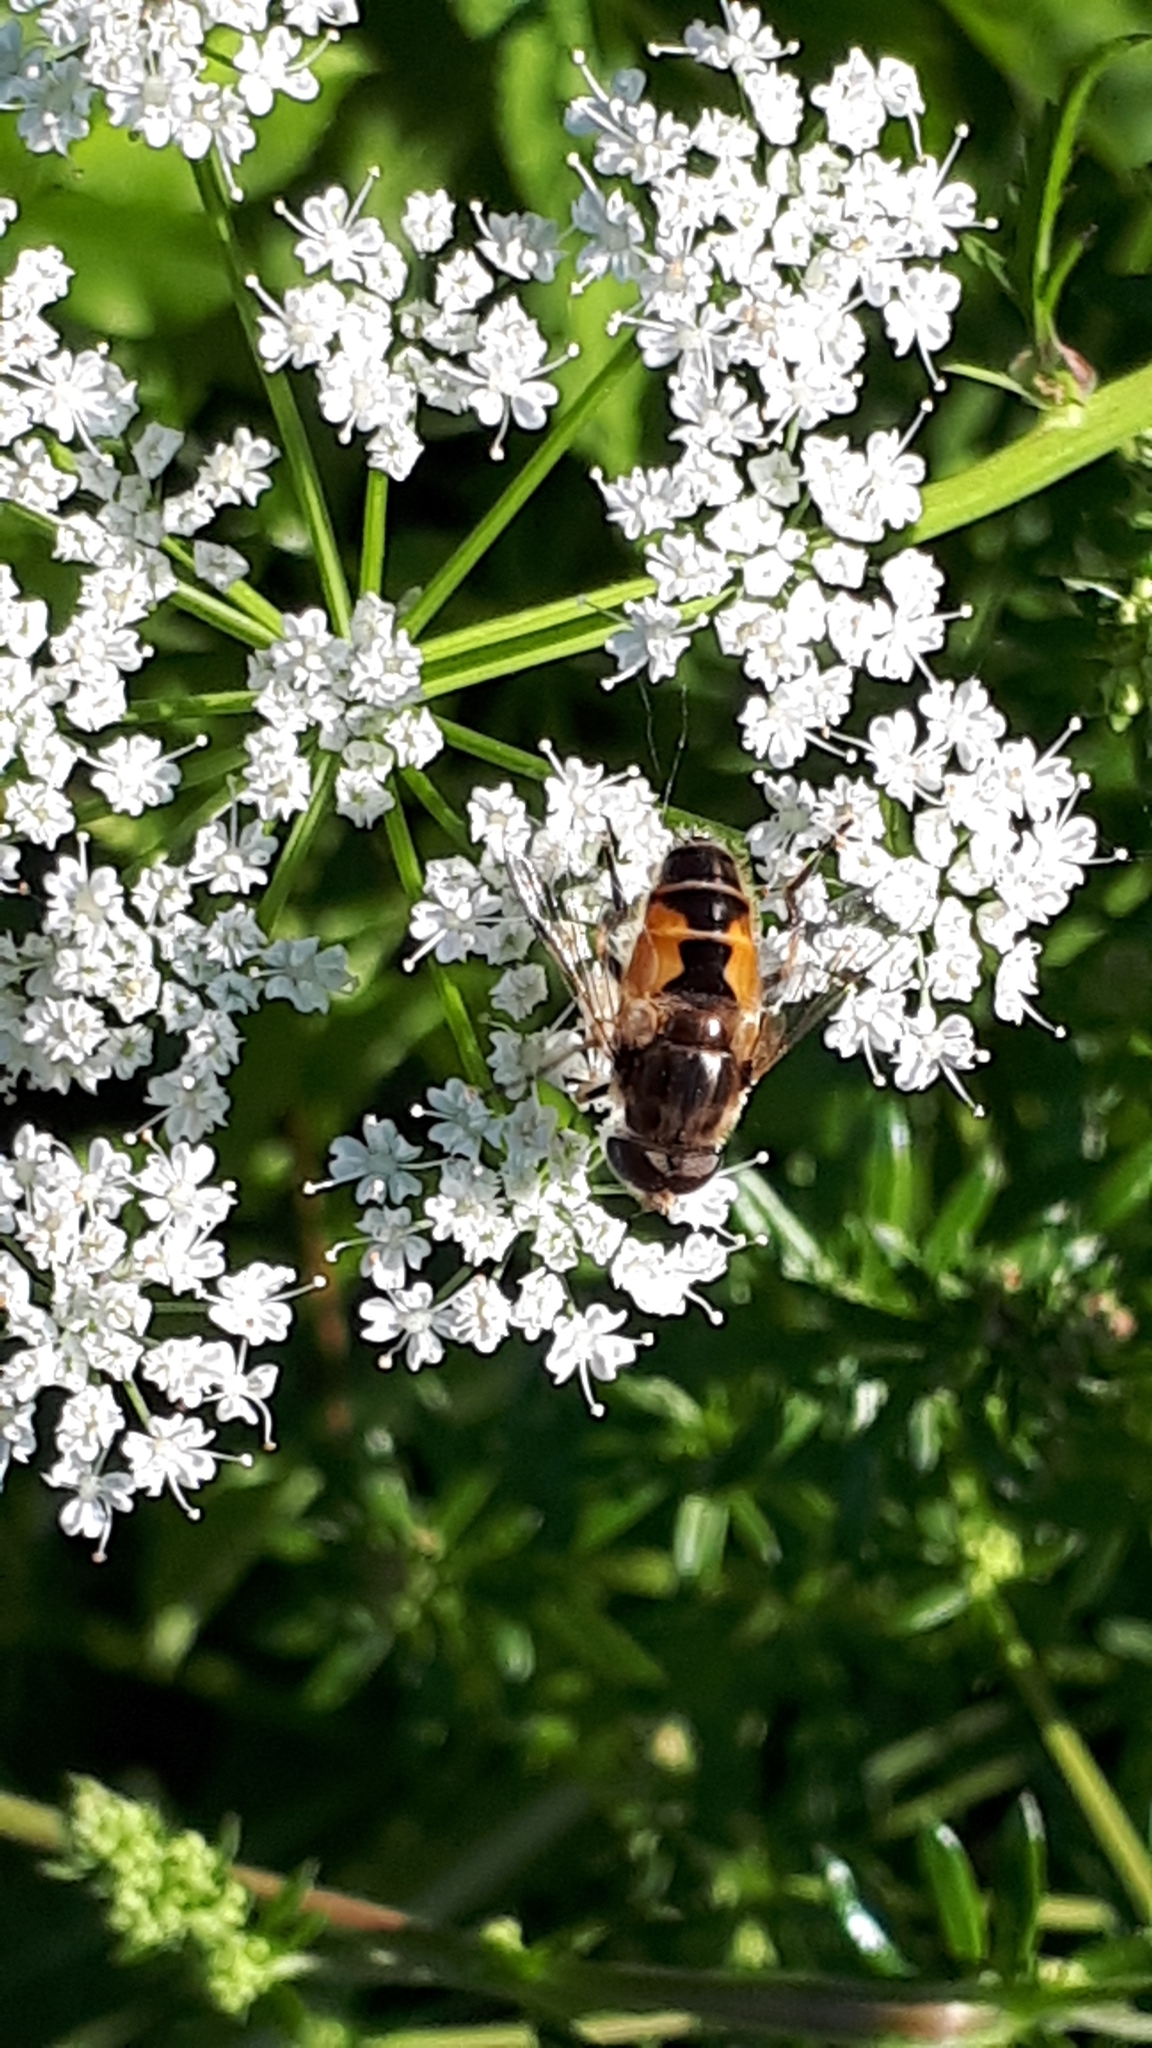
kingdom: Animalia
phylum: Arthropoda
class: Insecta
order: Diptera
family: Syrphidae
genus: Eristalis
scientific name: Eristalis arbustorum
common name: Hover fly
